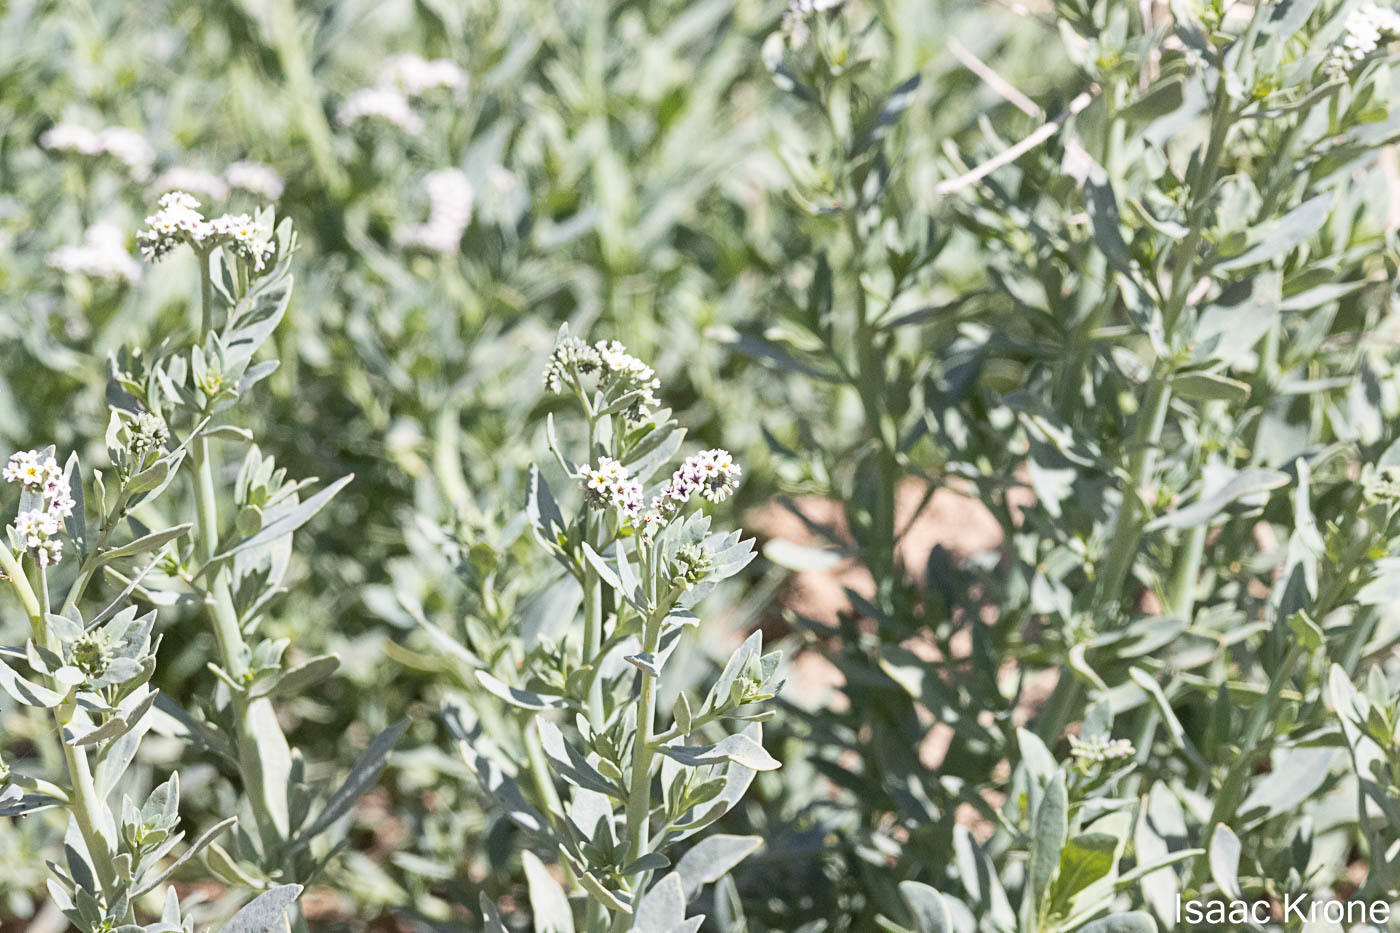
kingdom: Plantae
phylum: Tracheophyta
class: Magnoliopsida
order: Boraginales
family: Heliotropiaceae
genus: Heliotropium
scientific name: Heliotropium curassavicum
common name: Seaside heliotrope
